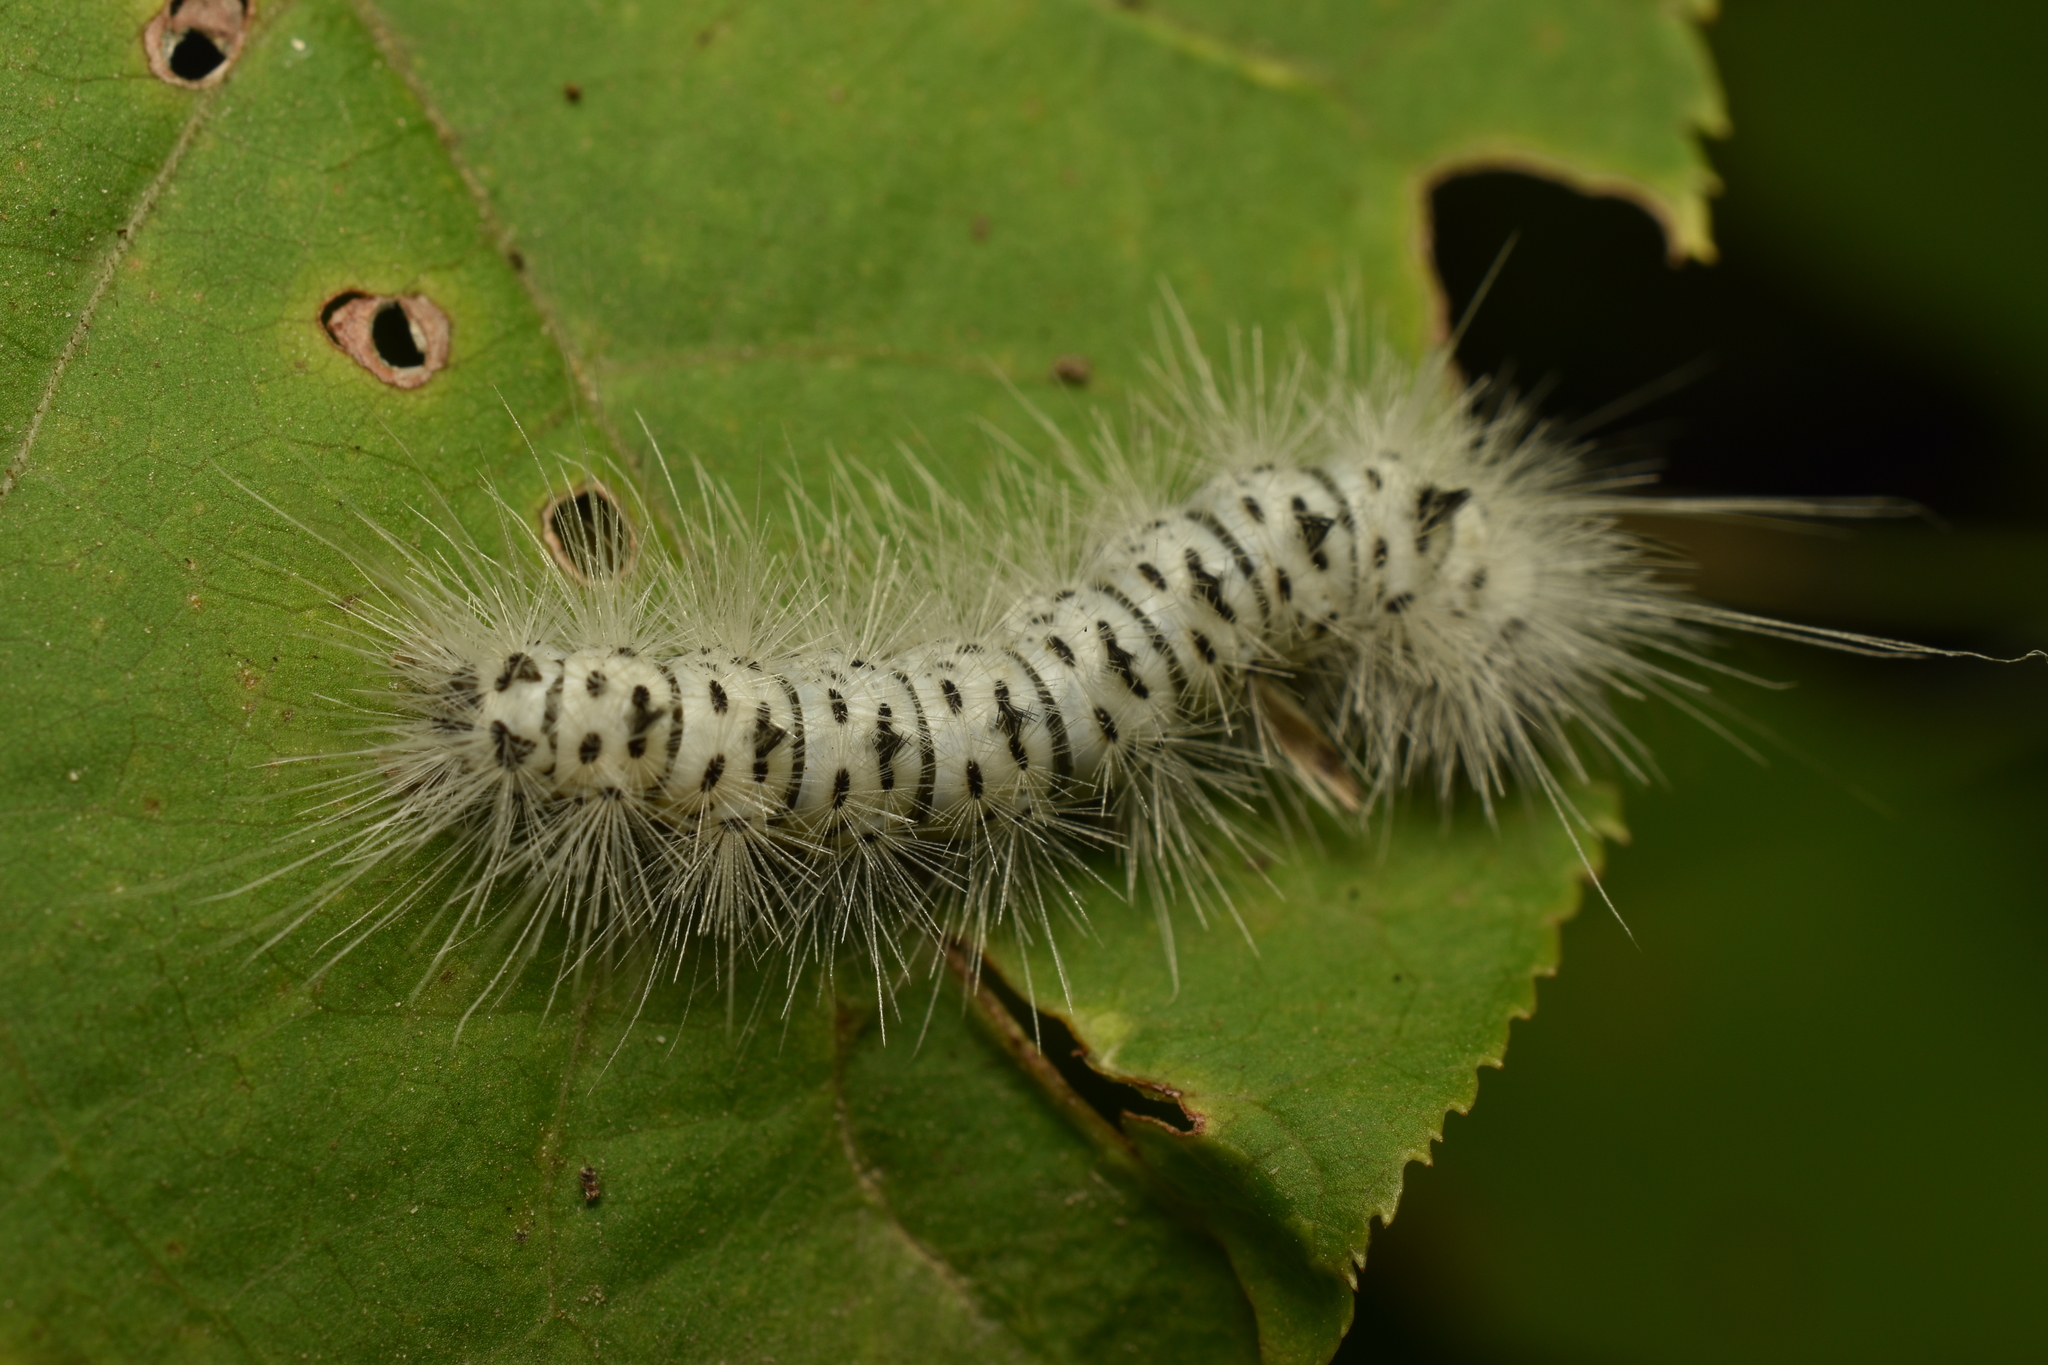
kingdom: Animalia
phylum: Arthropoda
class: Insecta
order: Lepidoptera
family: Erebidae
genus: Lophocampa
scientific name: Lophocampa caryae
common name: Hickory tussock moth
